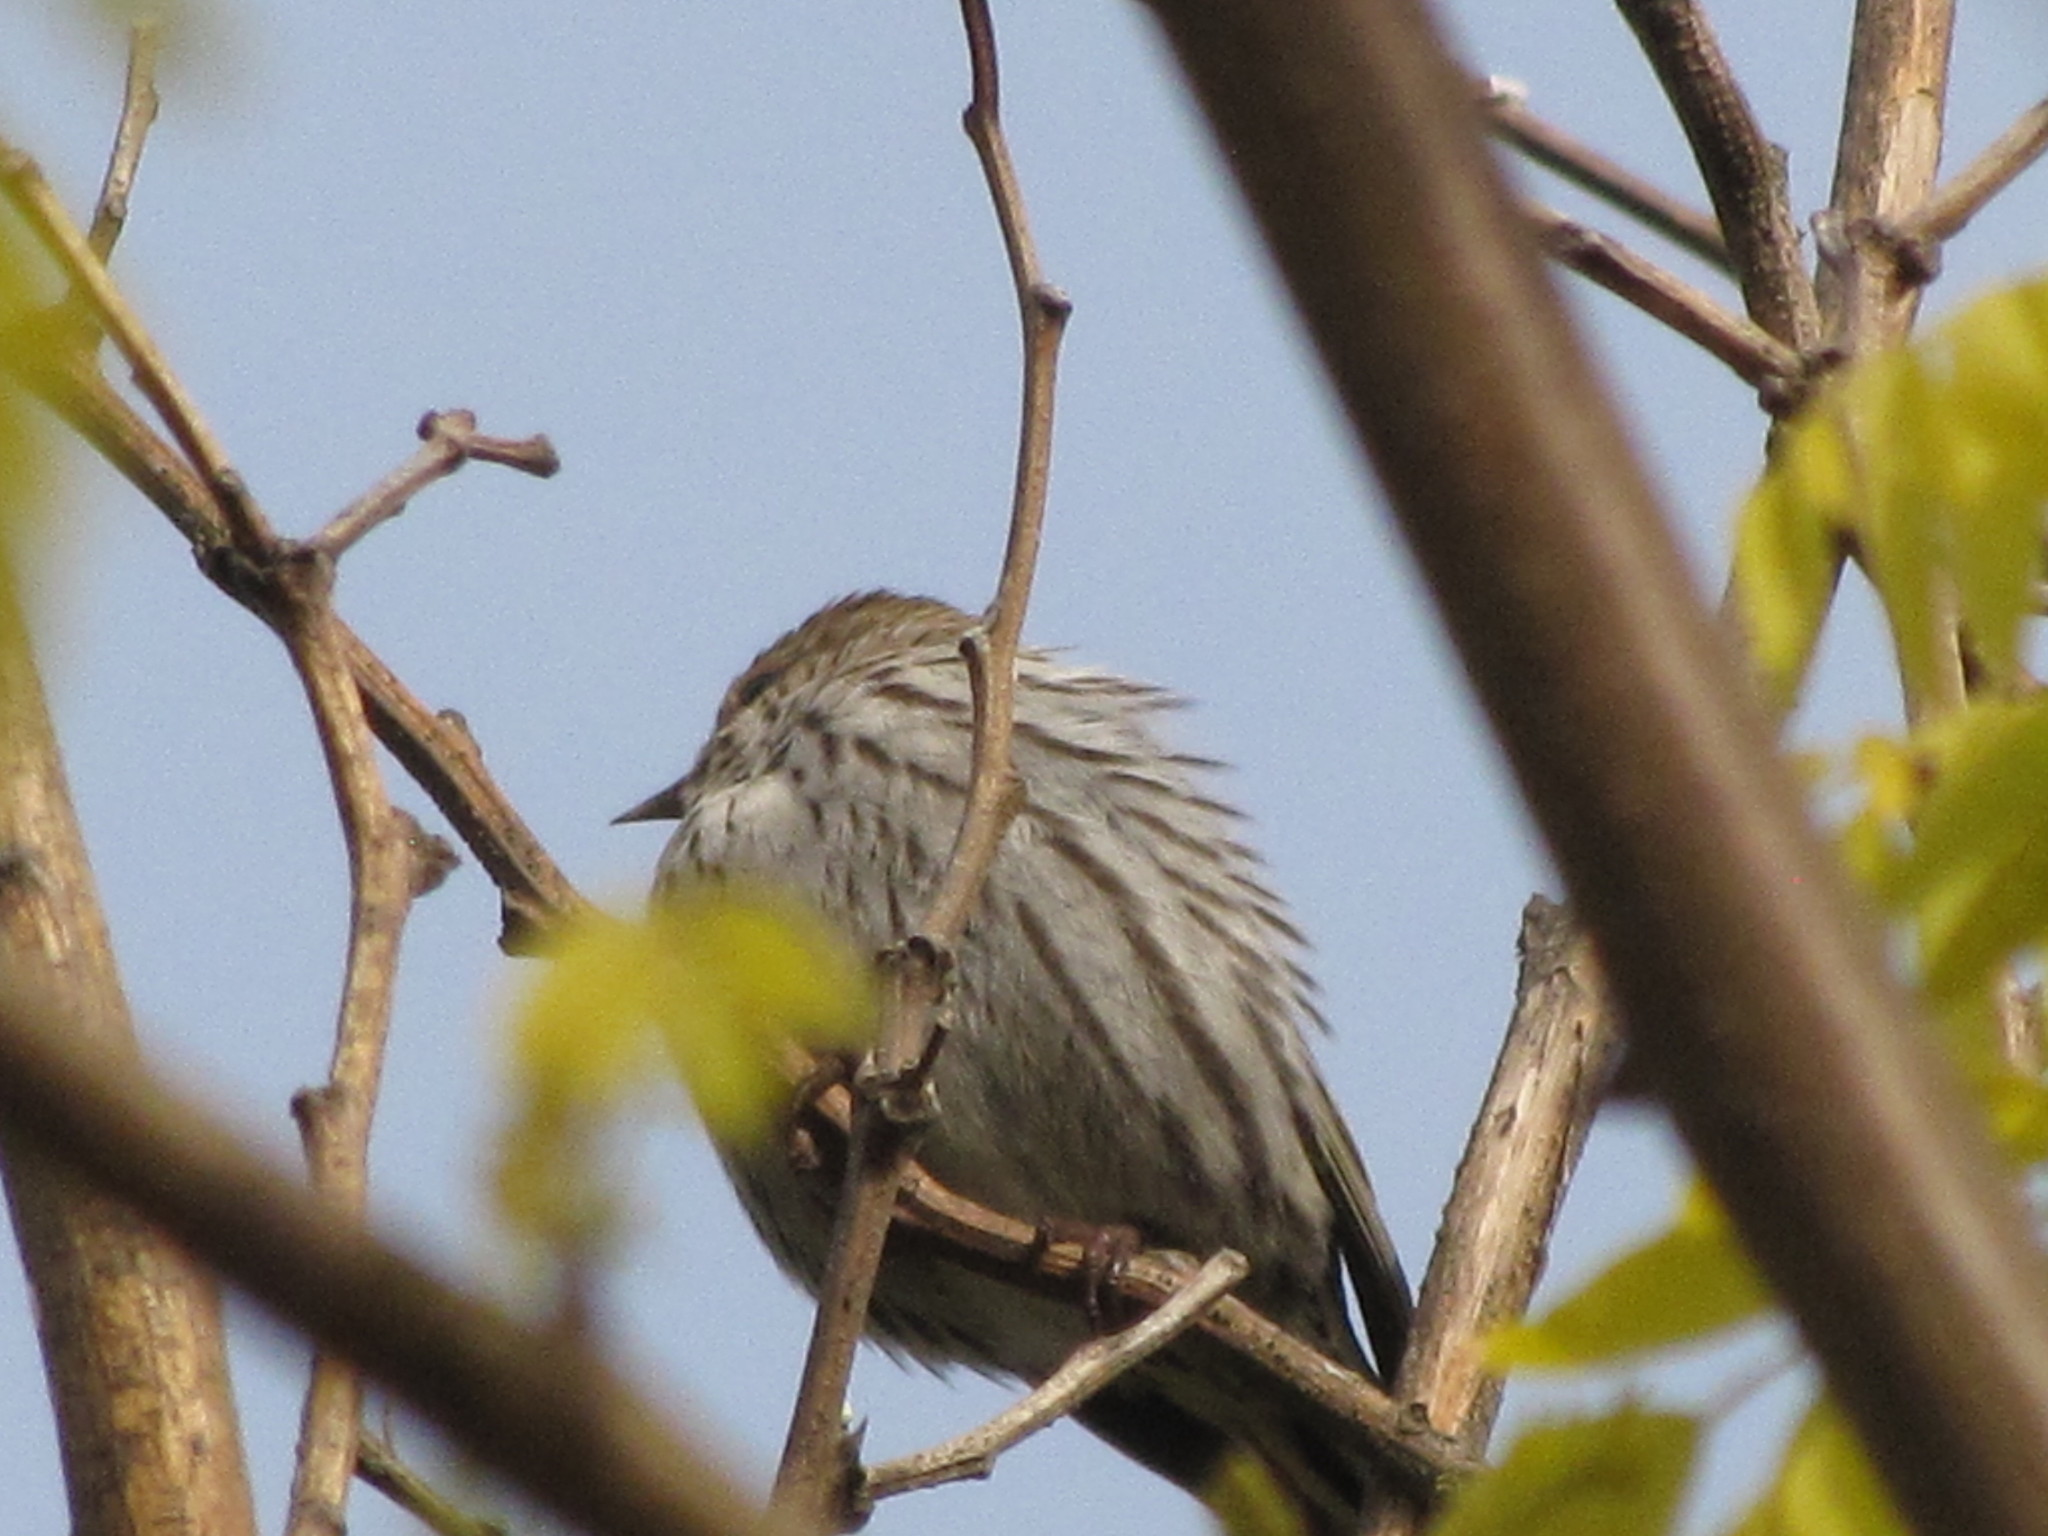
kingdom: Animalia
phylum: Chordata
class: Aves
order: Passeriformes
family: Fringillidae
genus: Spinus
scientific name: Spinus pinus
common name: Pine siskin
